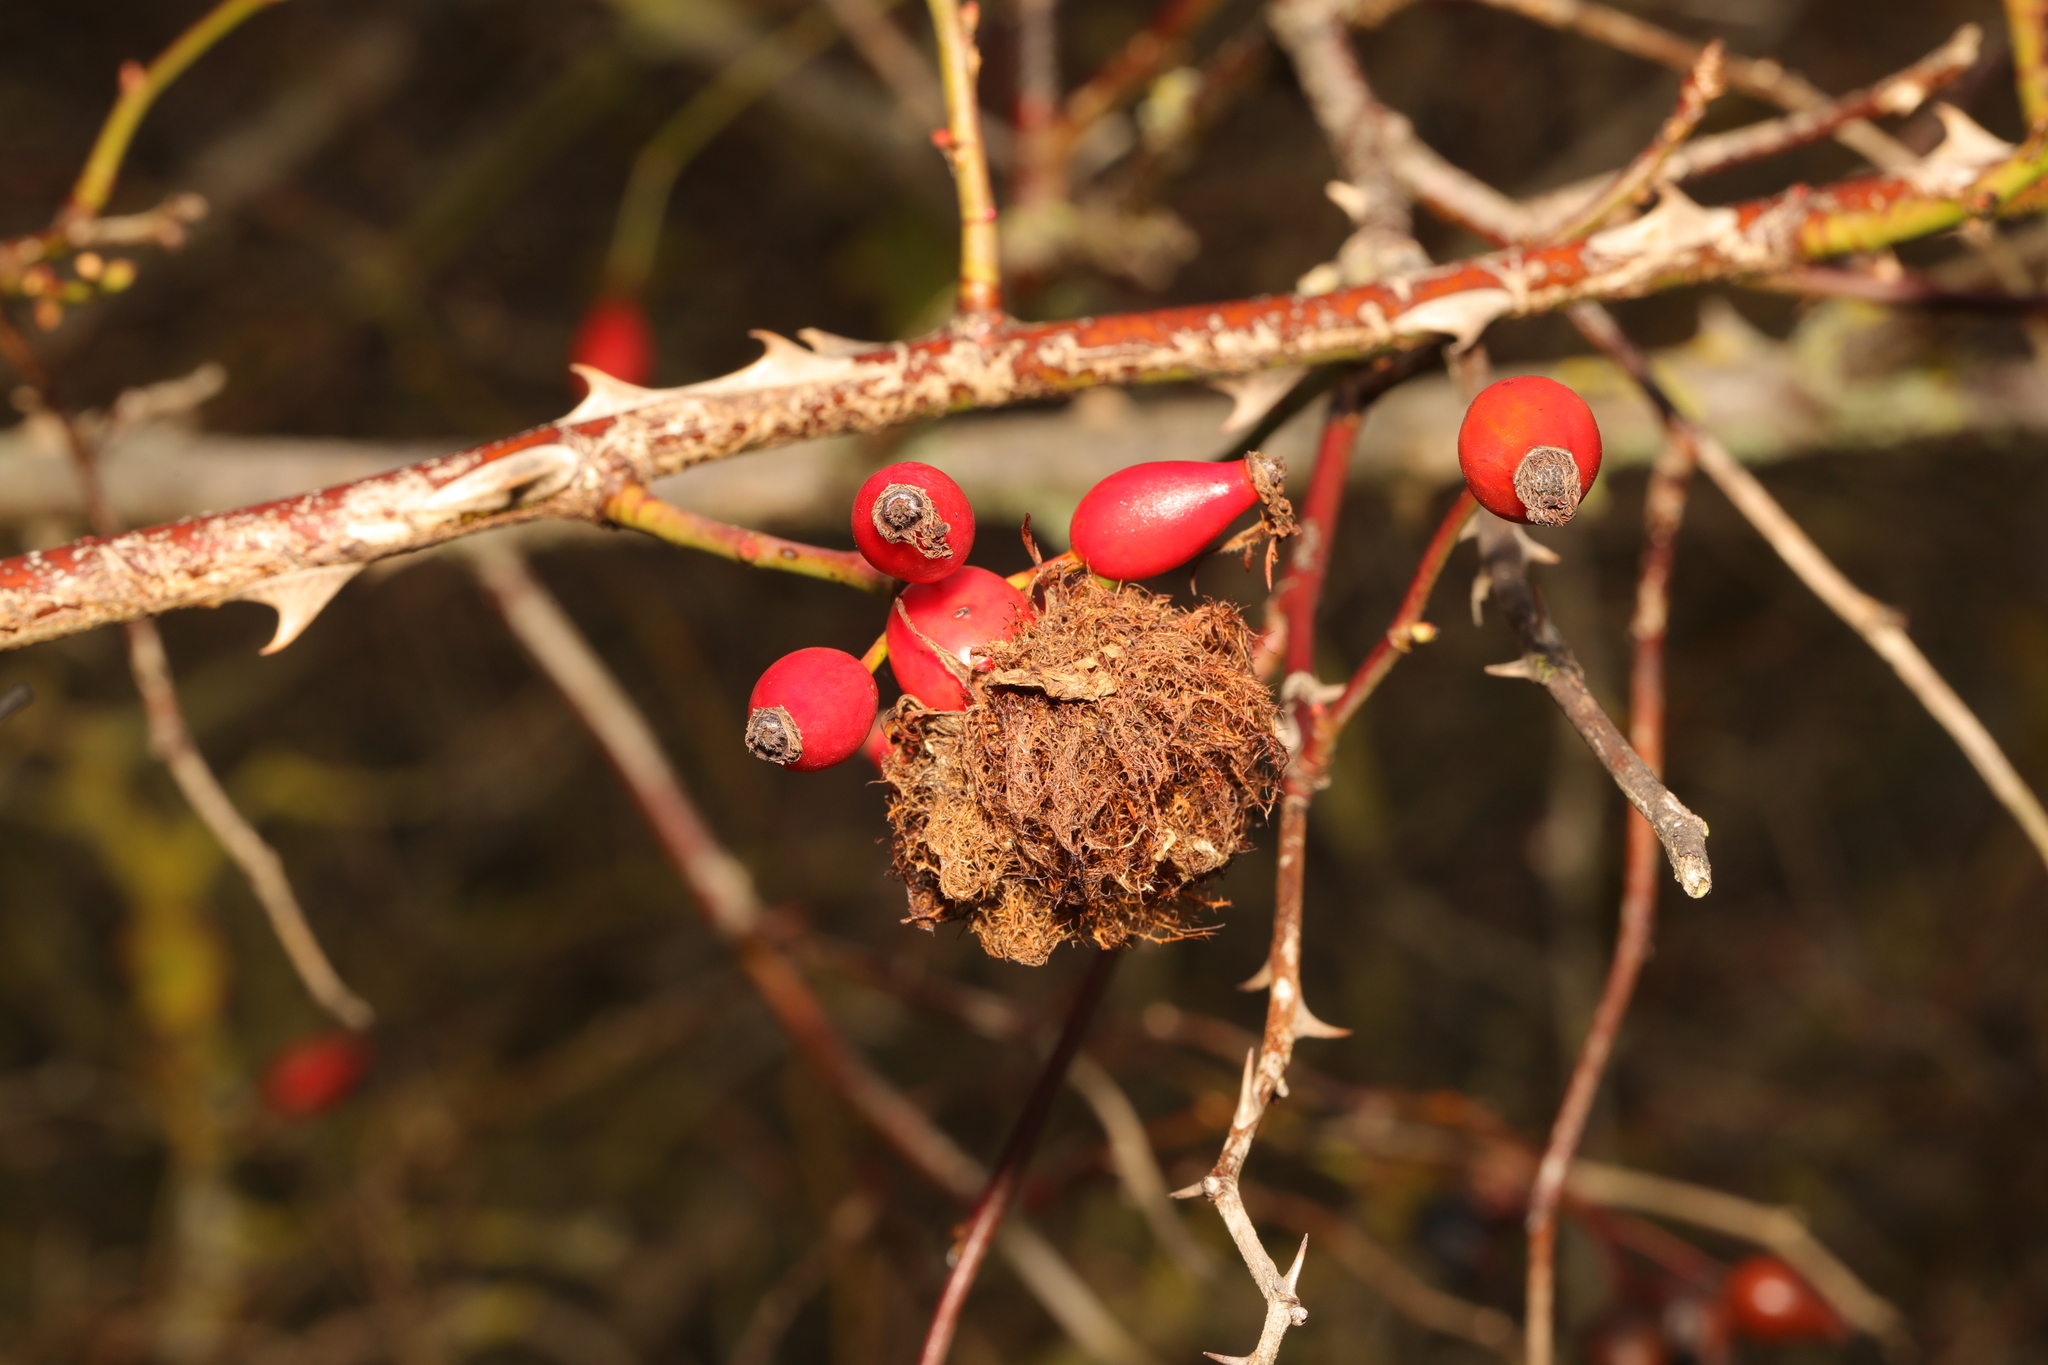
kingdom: Animalia
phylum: Arthropoda
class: Insecta
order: Hymenoptera
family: Cynipidae
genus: Diplolepis
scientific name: Diplolepis rosae
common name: Bedeguar gall
